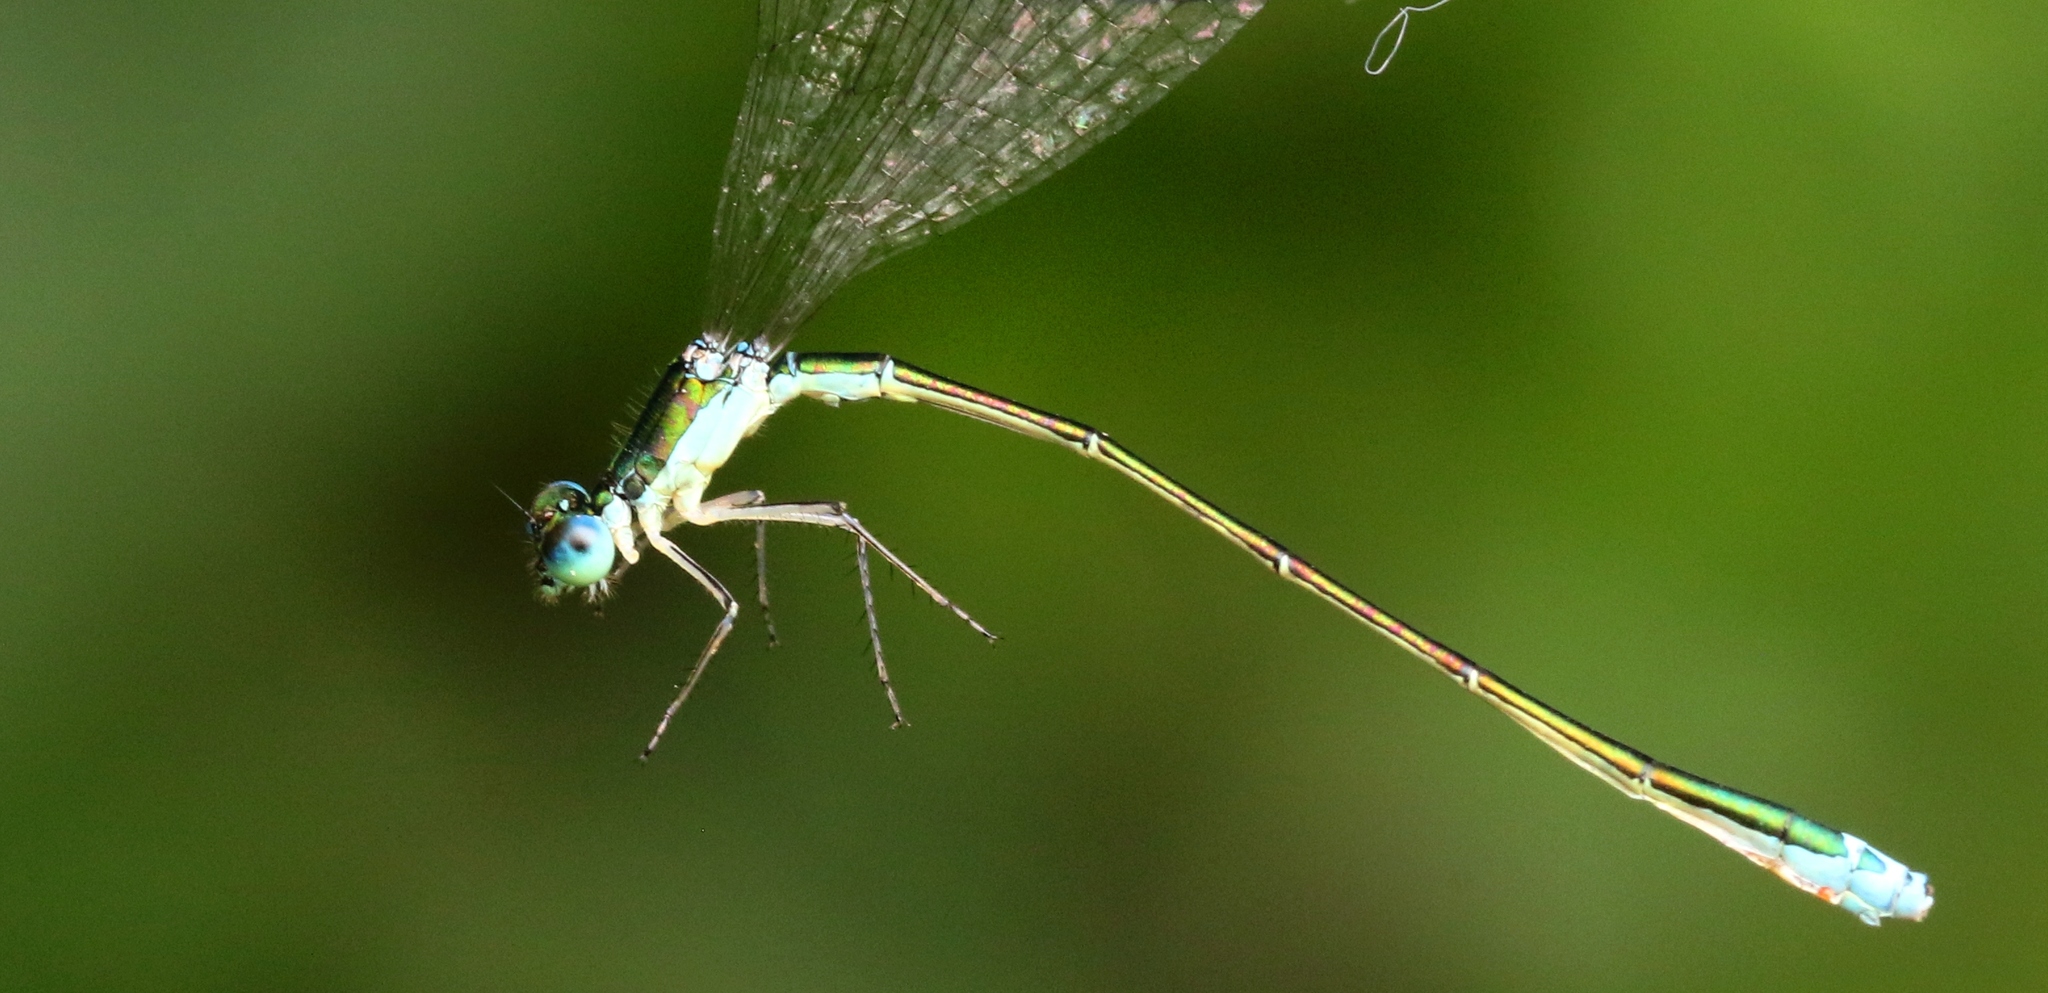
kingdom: Animalia
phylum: Arthropoda
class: Insecta
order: Odonata
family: Coenagrionidae
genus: Nehalennia
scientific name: Nehalennia irene
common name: Sedge sprite
